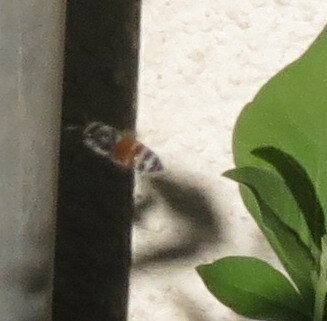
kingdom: Animalia
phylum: Arthropoda
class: Insecta
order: Hymenoptera
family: Apidae
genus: Apis
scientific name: Apis florea
